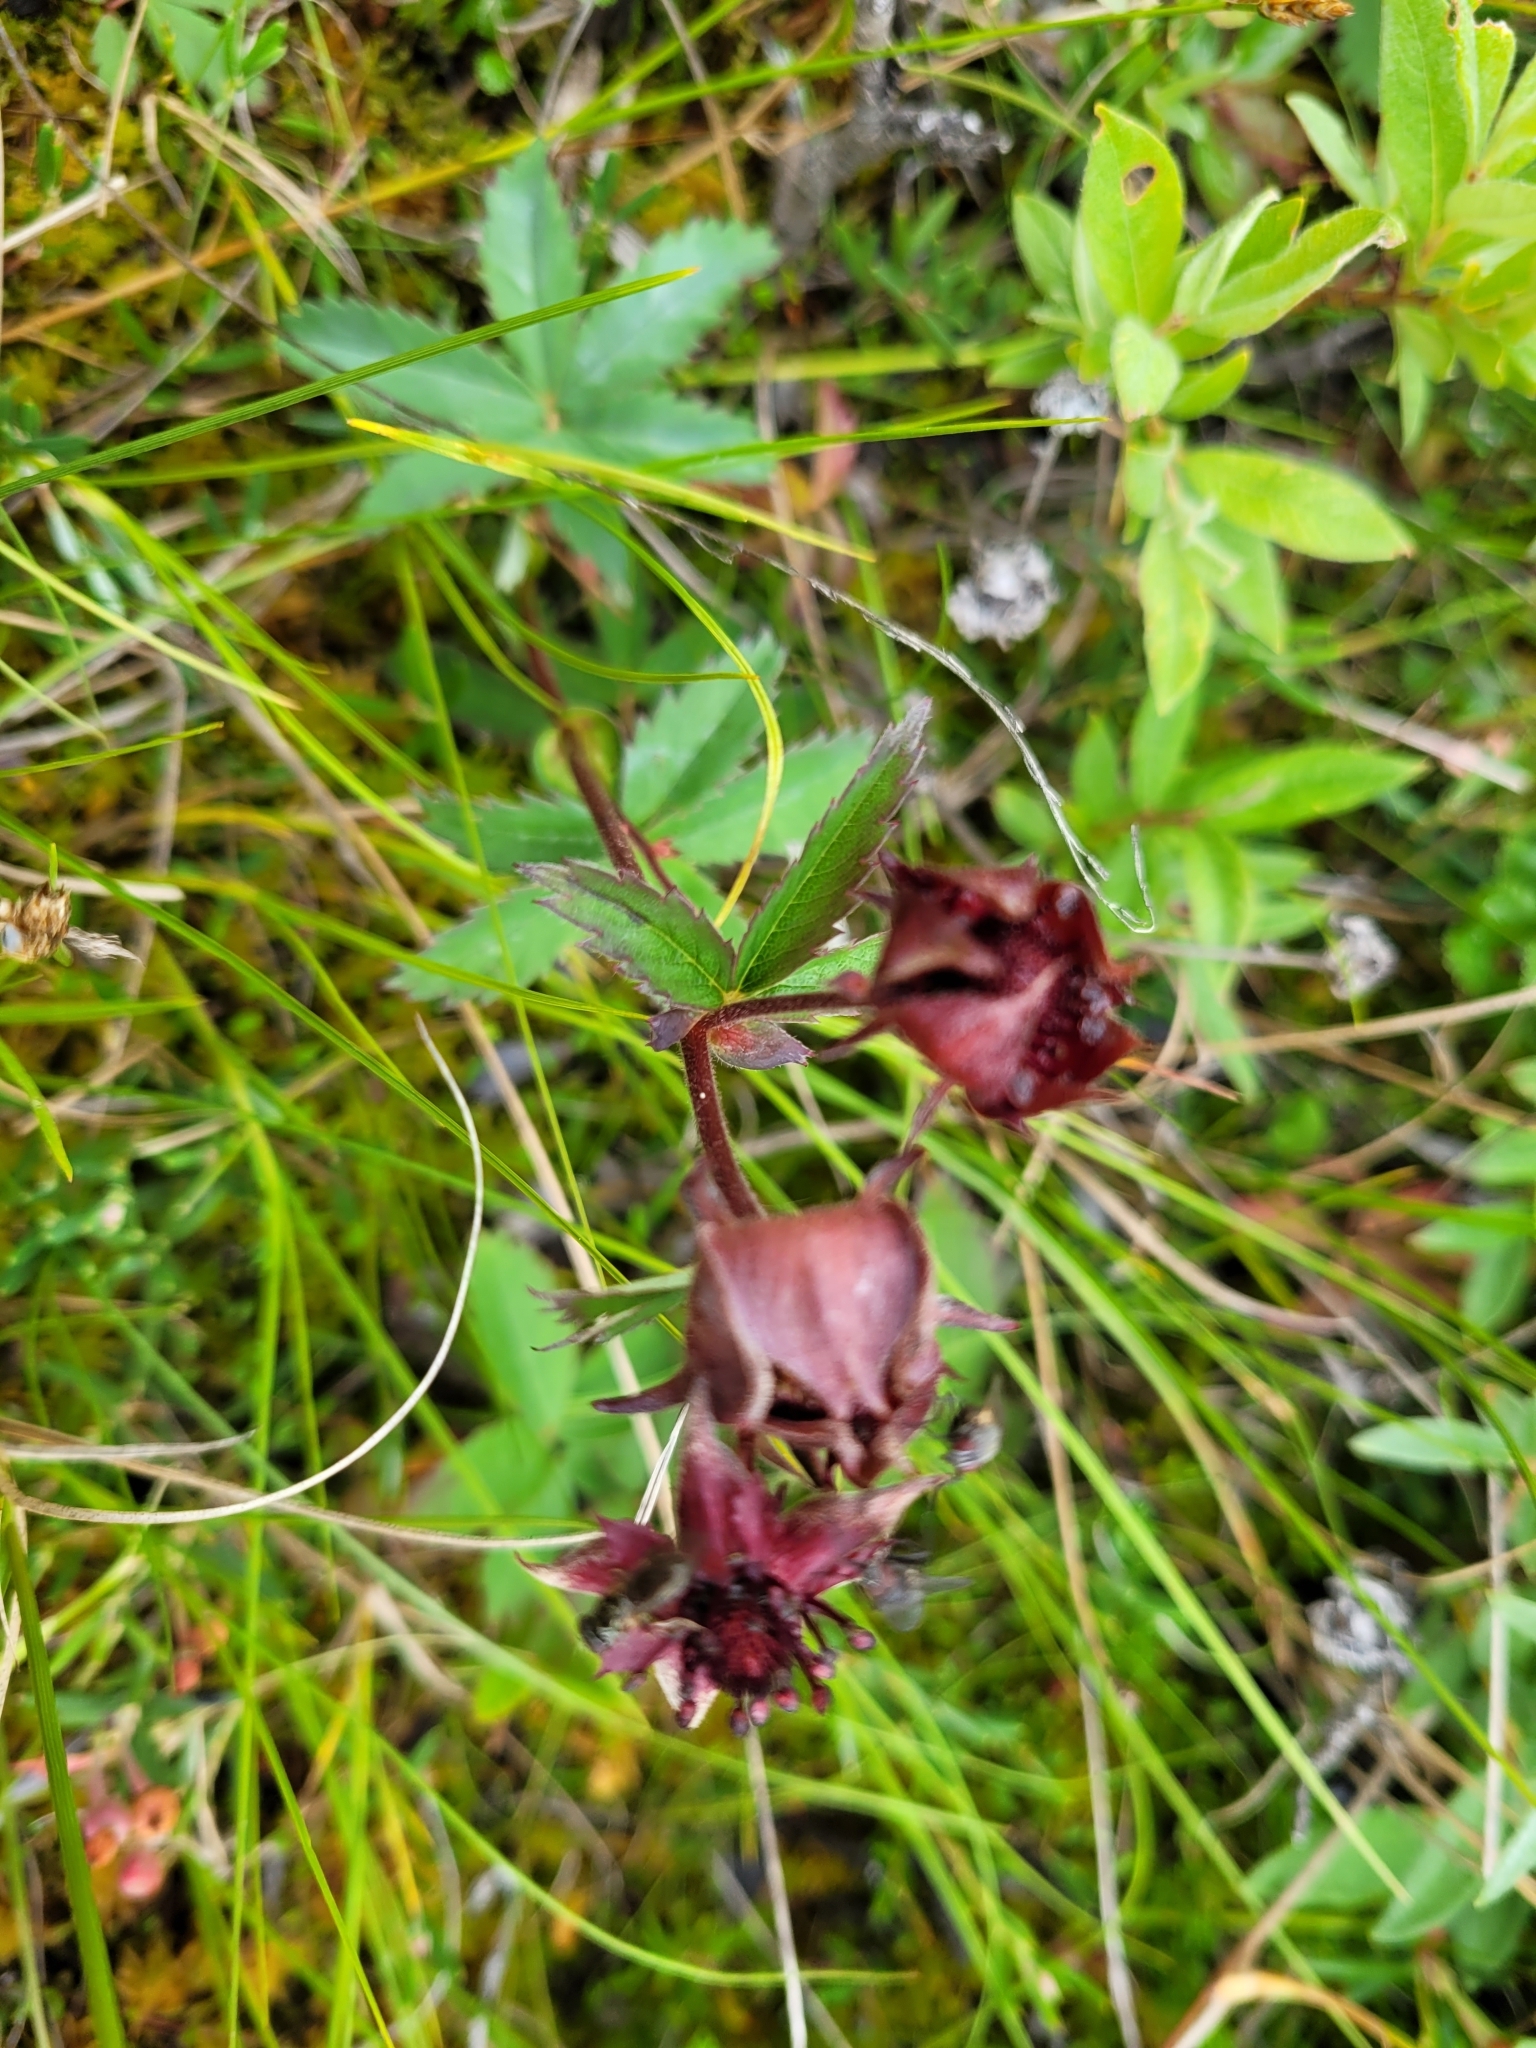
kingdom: Plantae
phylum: Tracheophyta
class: Magnoliopsida
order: Rosales
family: Rosaceae
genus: Comarum
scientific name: Comarum palustre
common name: Marsh cinquefoil
